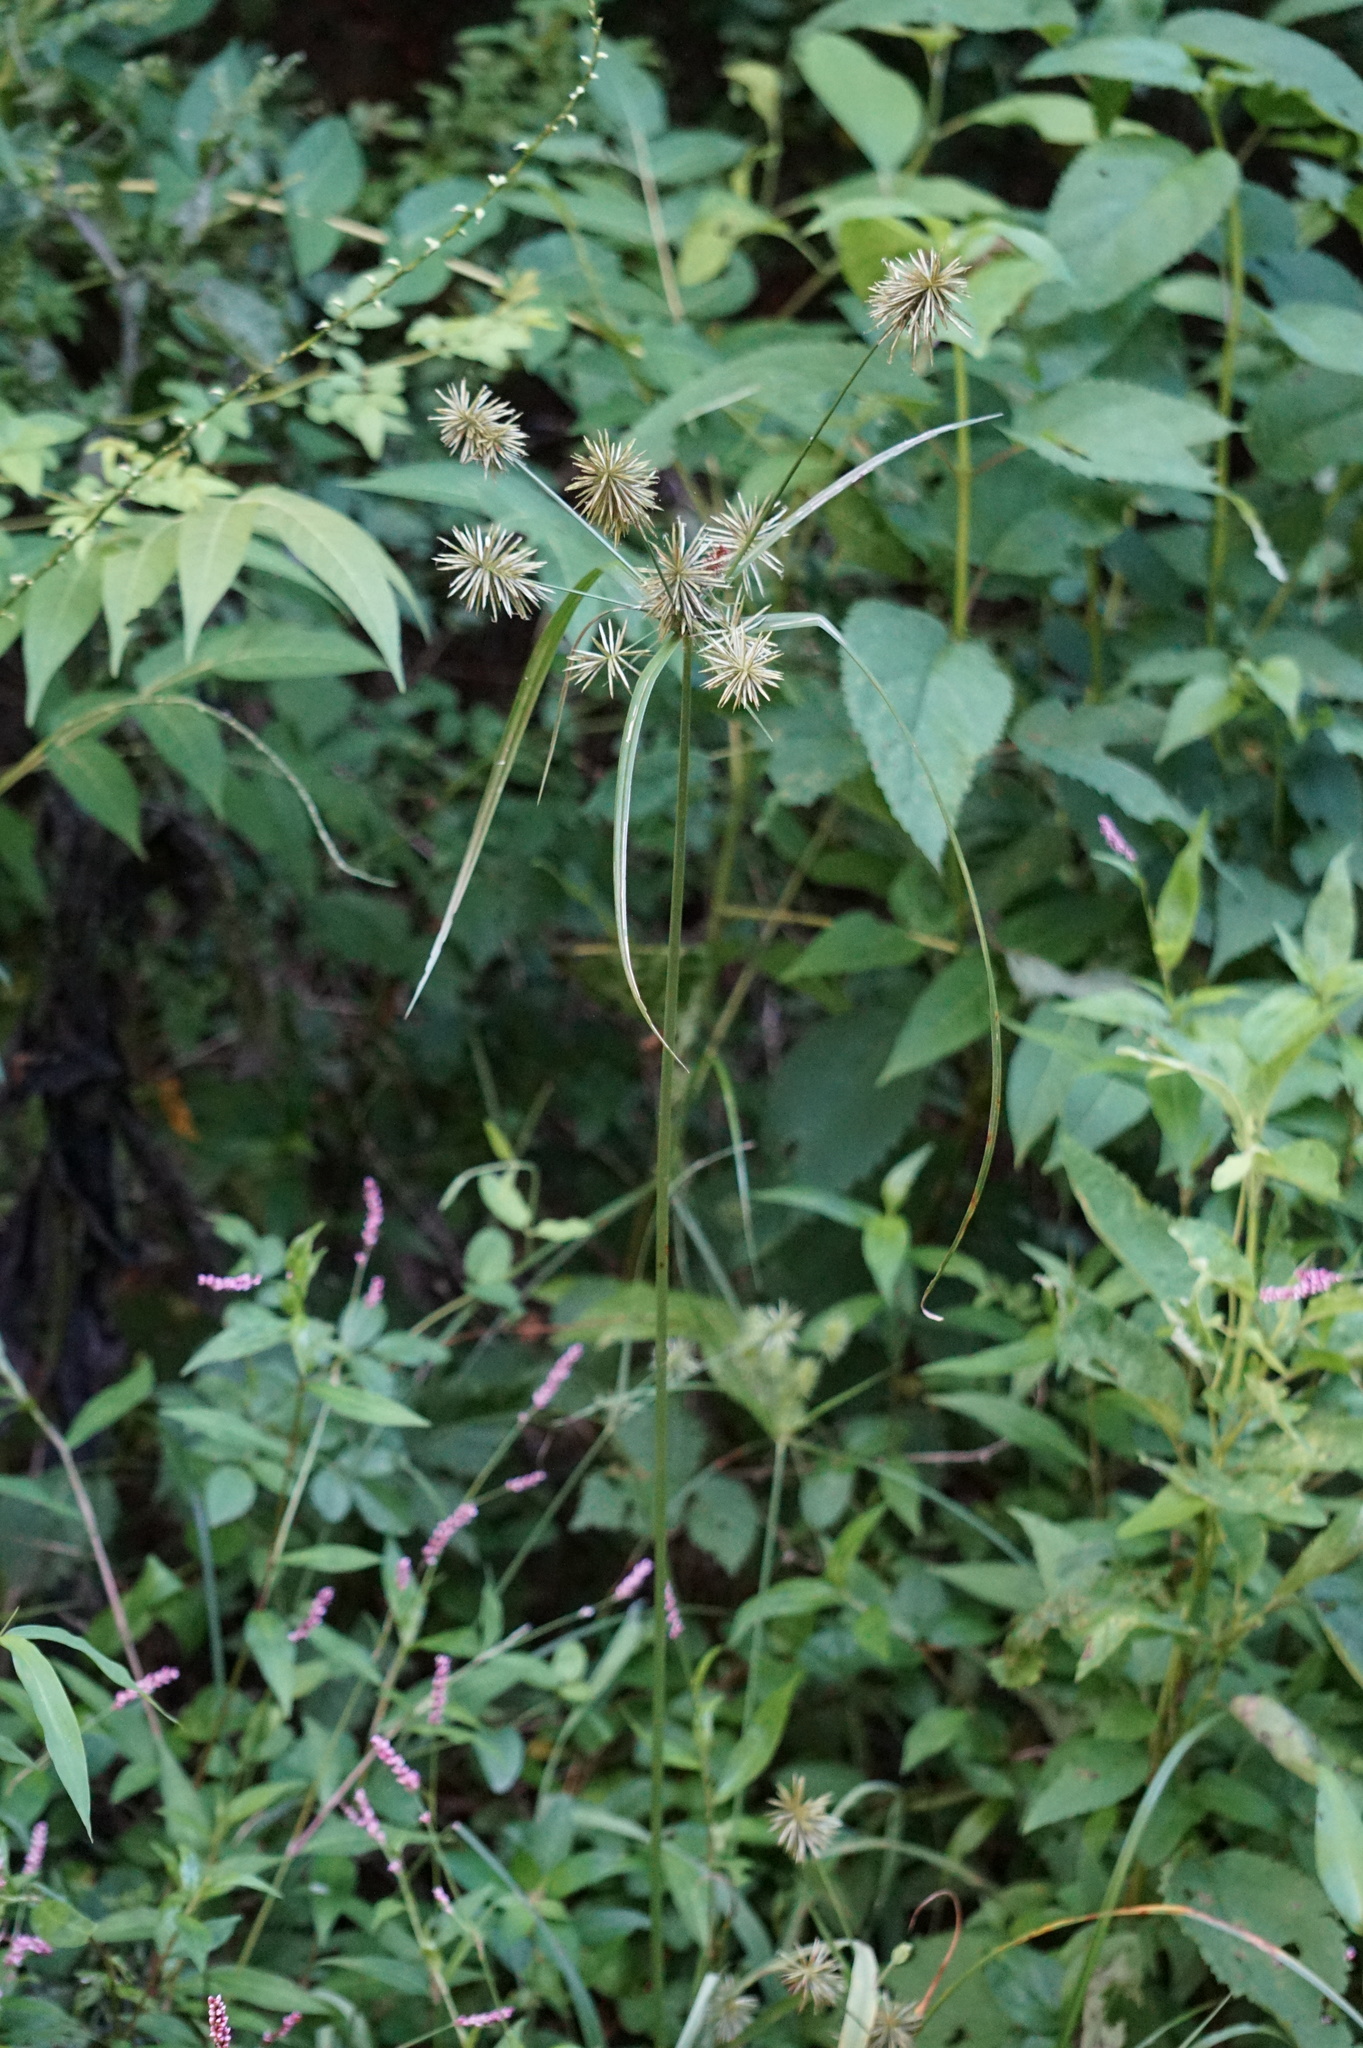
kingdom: Plantae
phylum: Tracheophyta
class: Liliopsida
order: Poales
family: Cyperaceae
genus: Cyperus
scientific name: Cyperus lancastriensis
